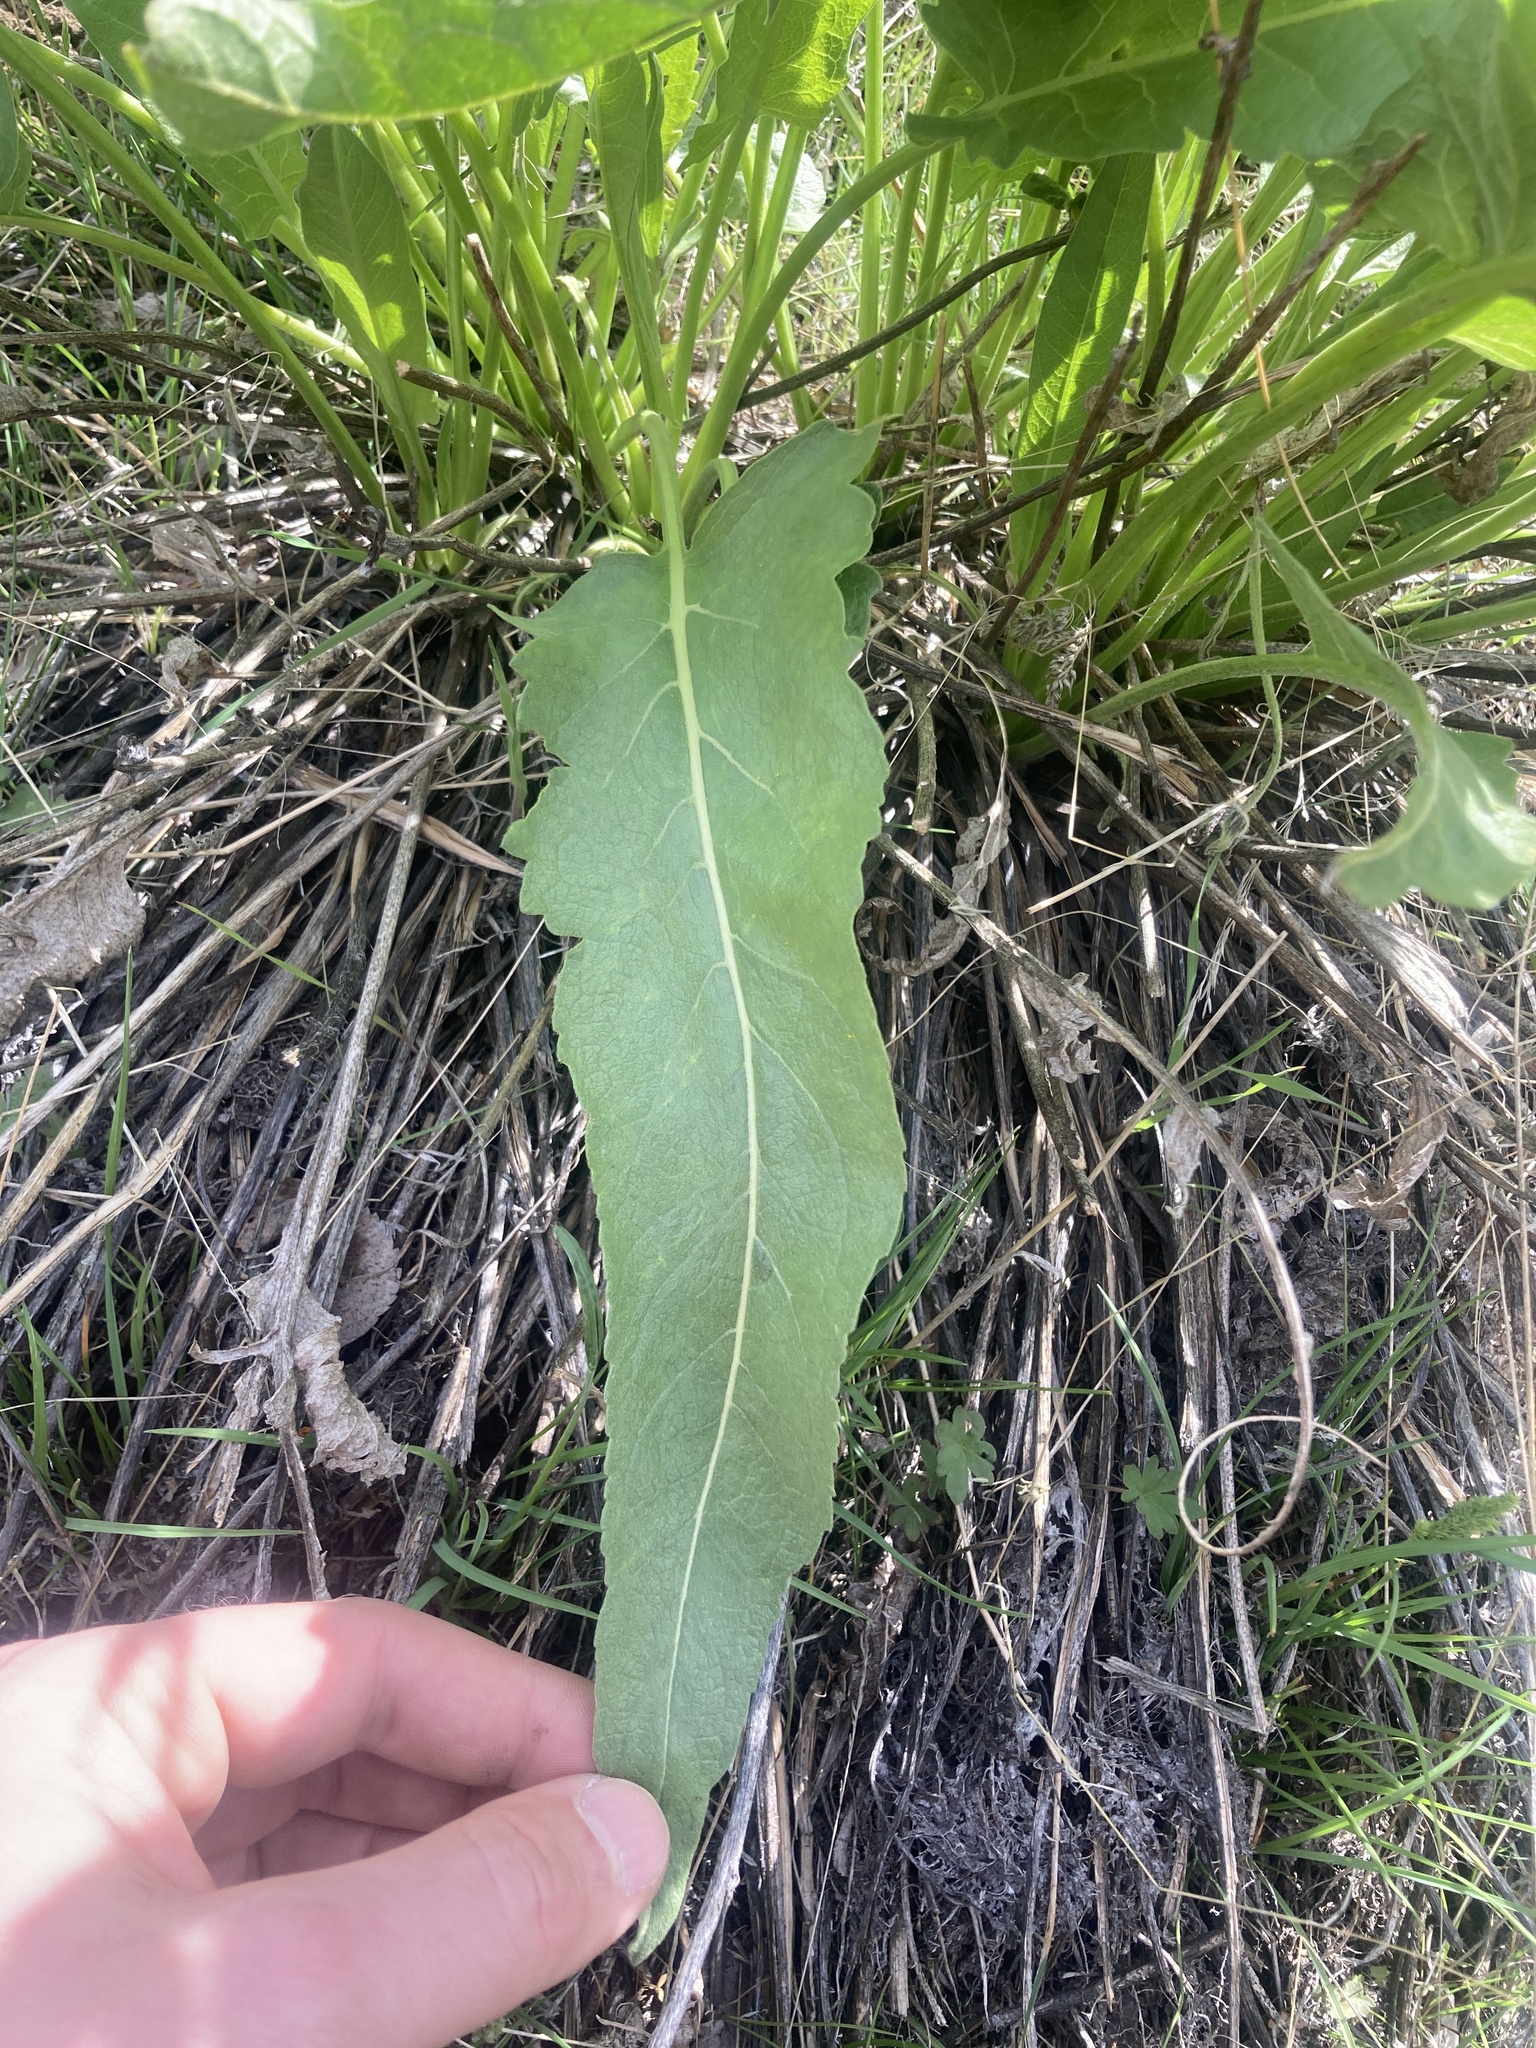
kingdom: Plantae
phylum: Tracheophyta
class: Magnoliopsida
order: Asterales
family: Asteraceae
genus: Wyethia
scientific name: Wyethia sagittata
